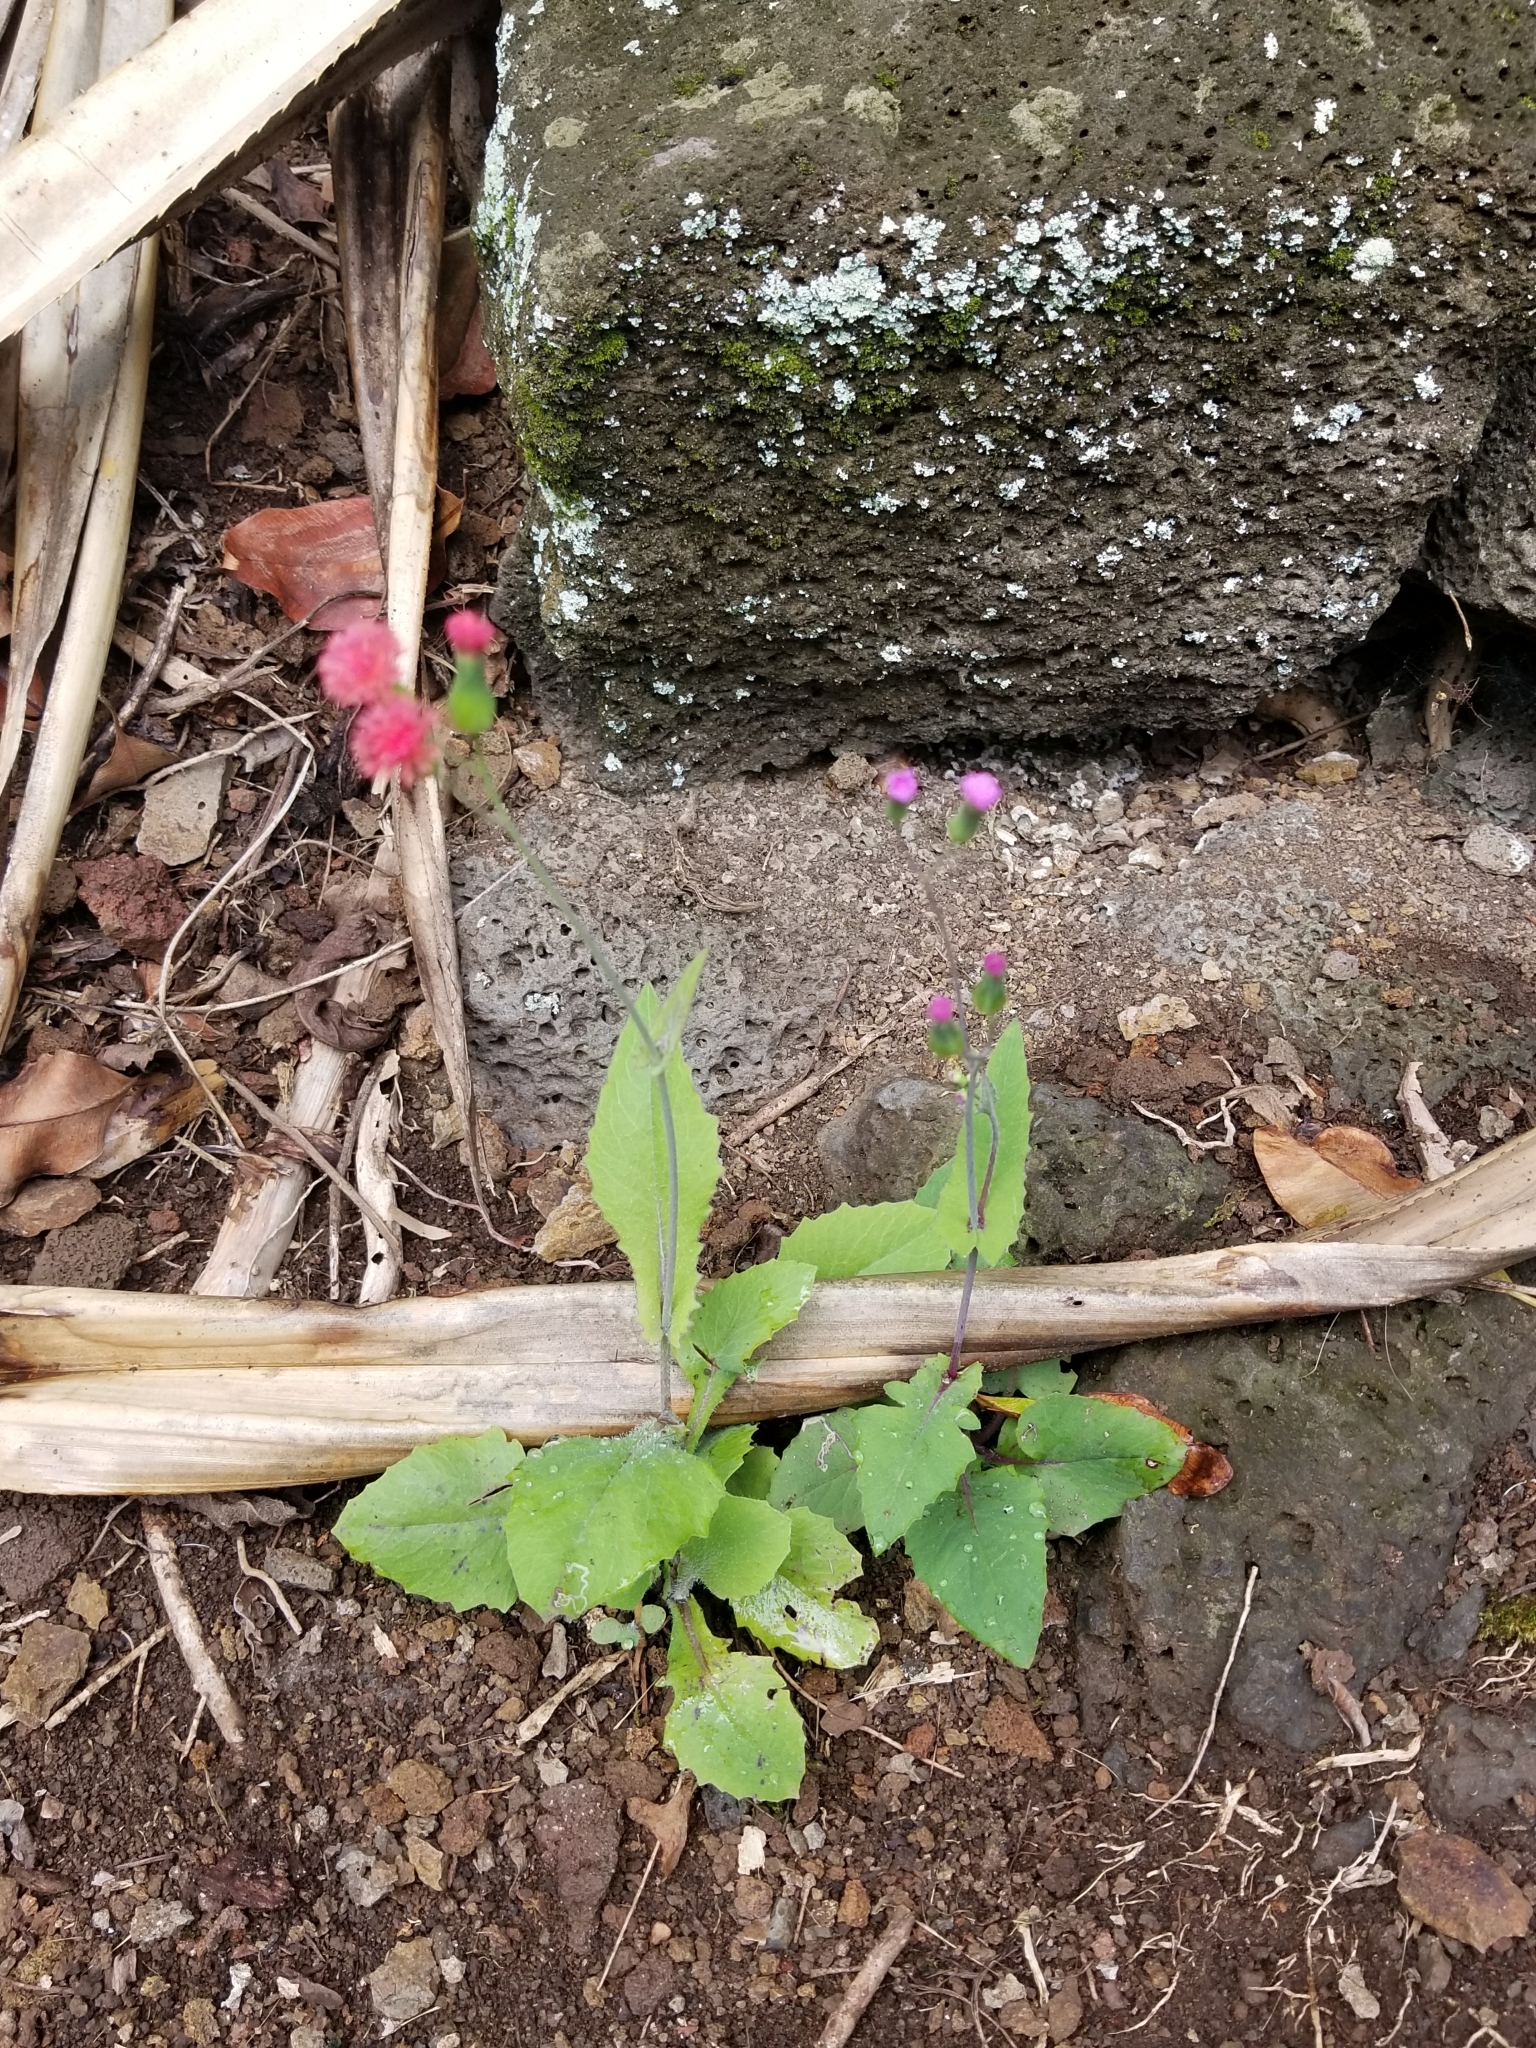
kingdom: Plantae
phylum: Tracheophyta
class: Magnoliopsida
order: Asterales
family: Asteraceae
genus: Emilia
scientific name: Emilia sonchifolia
